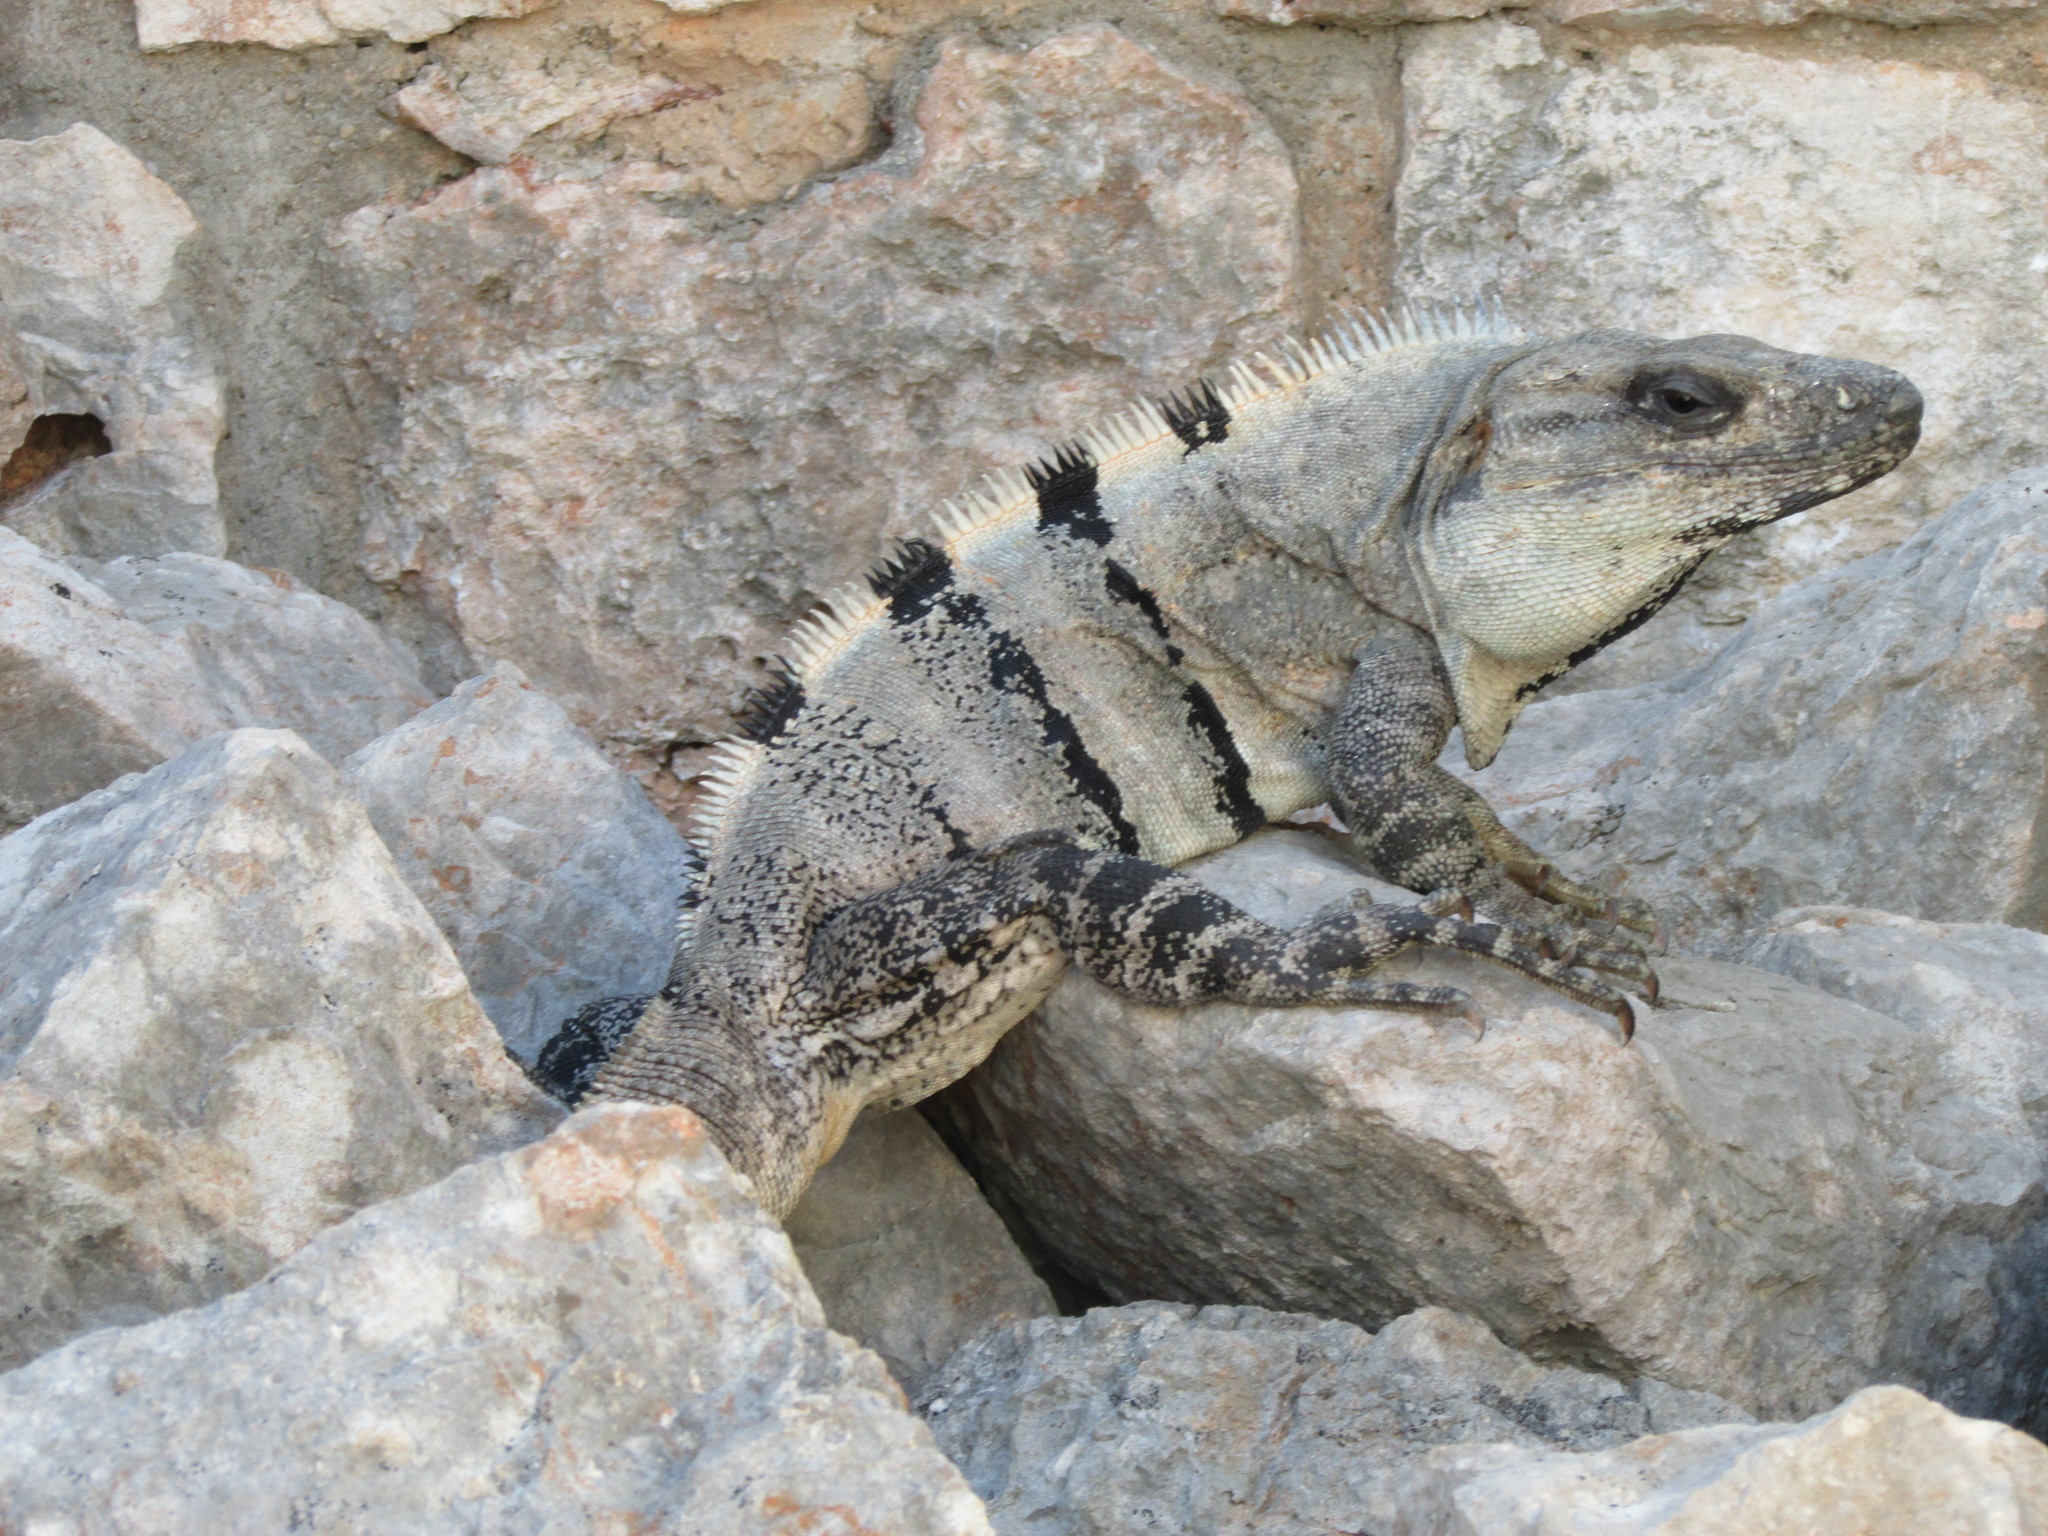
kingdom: Animalia
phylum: Chordata
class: Squamata
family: Iguanidae
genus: Ctenosaura
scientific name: Ctenosaura similis
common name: Black spiny-tailed iguana
